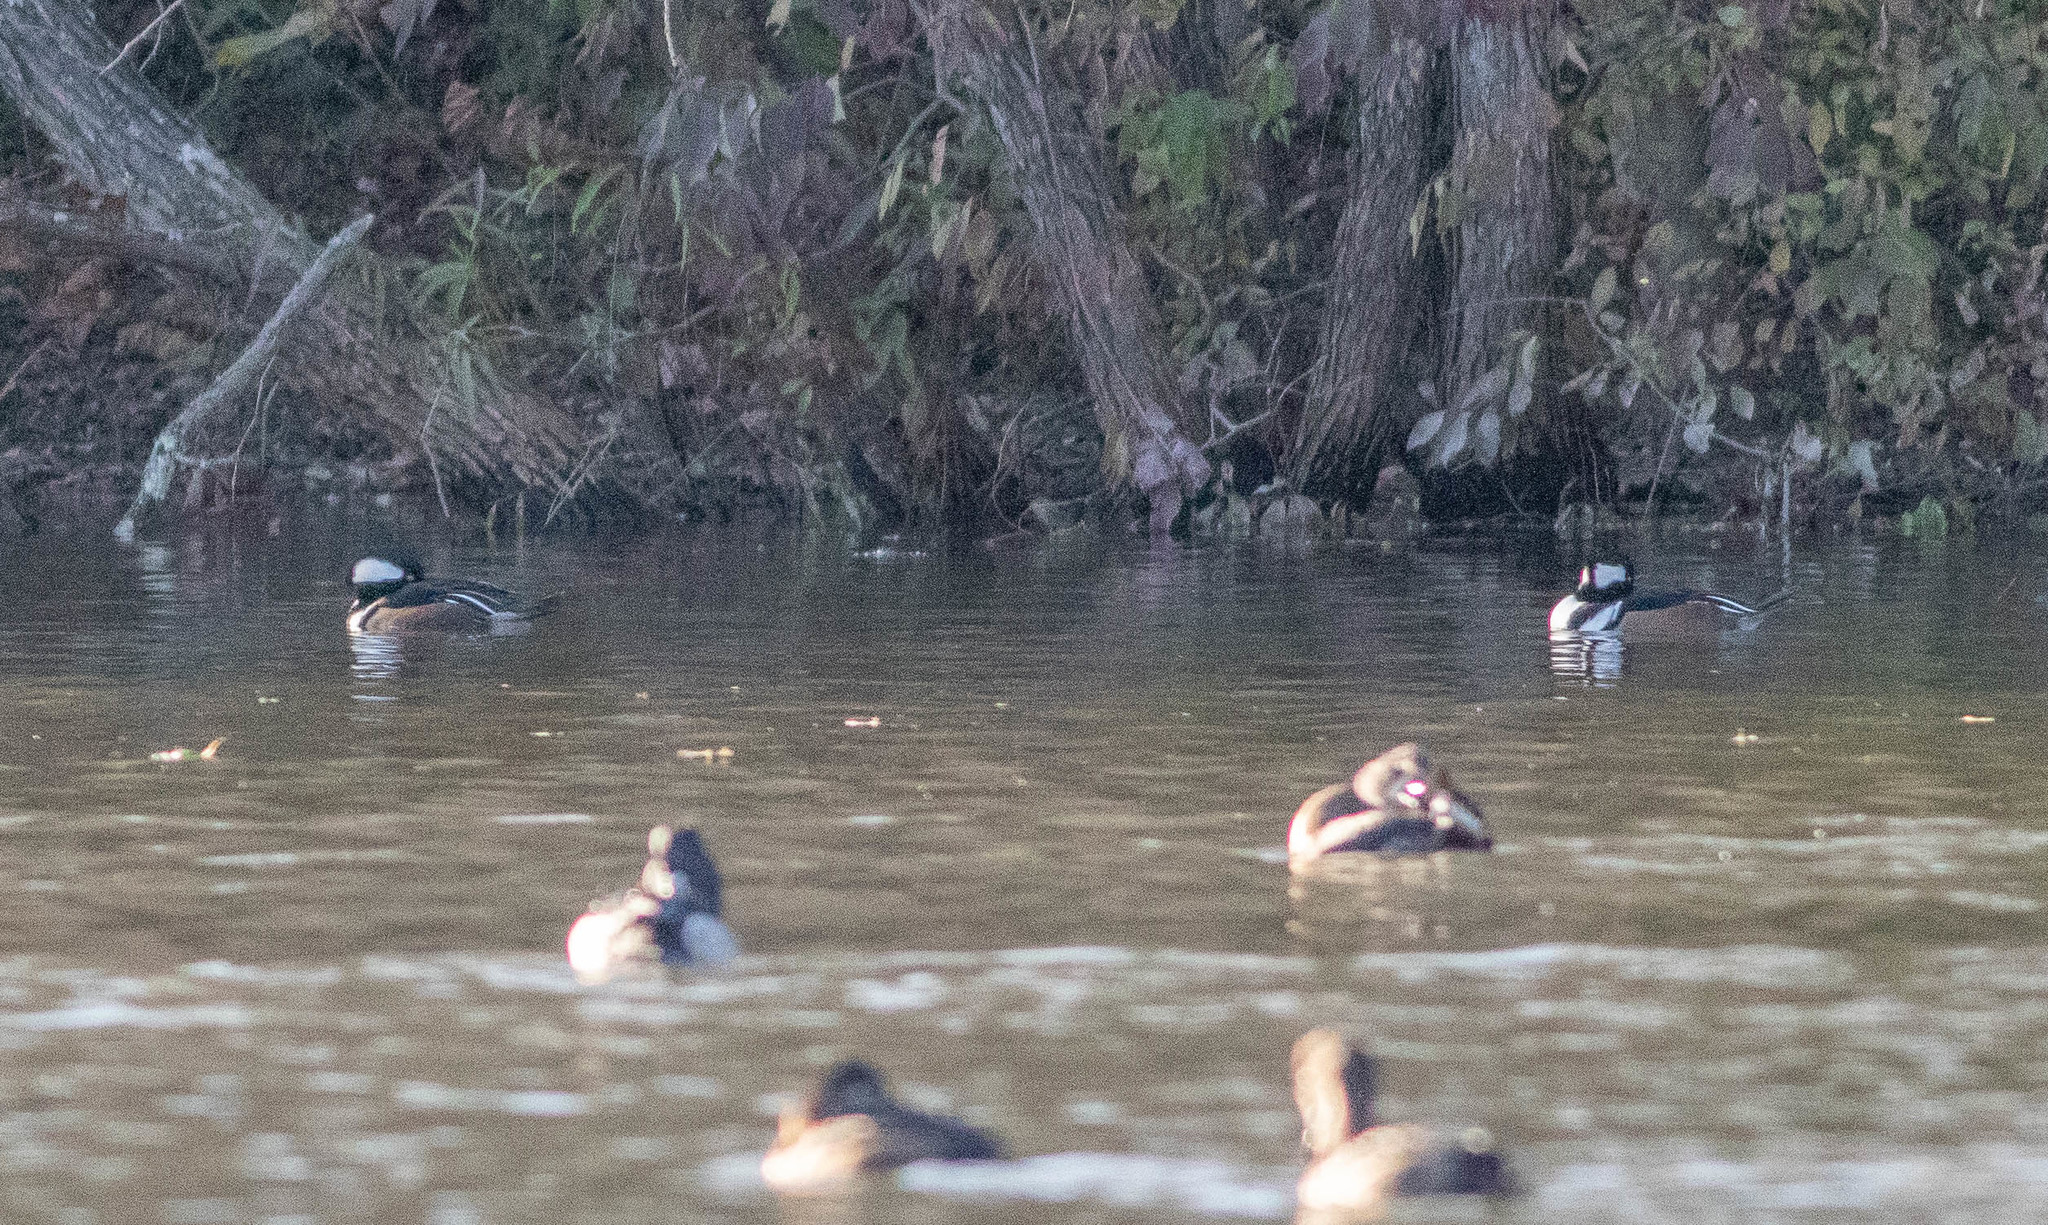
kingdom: Animalia
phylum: Chordata
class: Aves
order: Anseriformes
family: Anatidae
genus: Lophodytes
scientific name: Lophodytes cucullatus
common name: Hooded merganser
